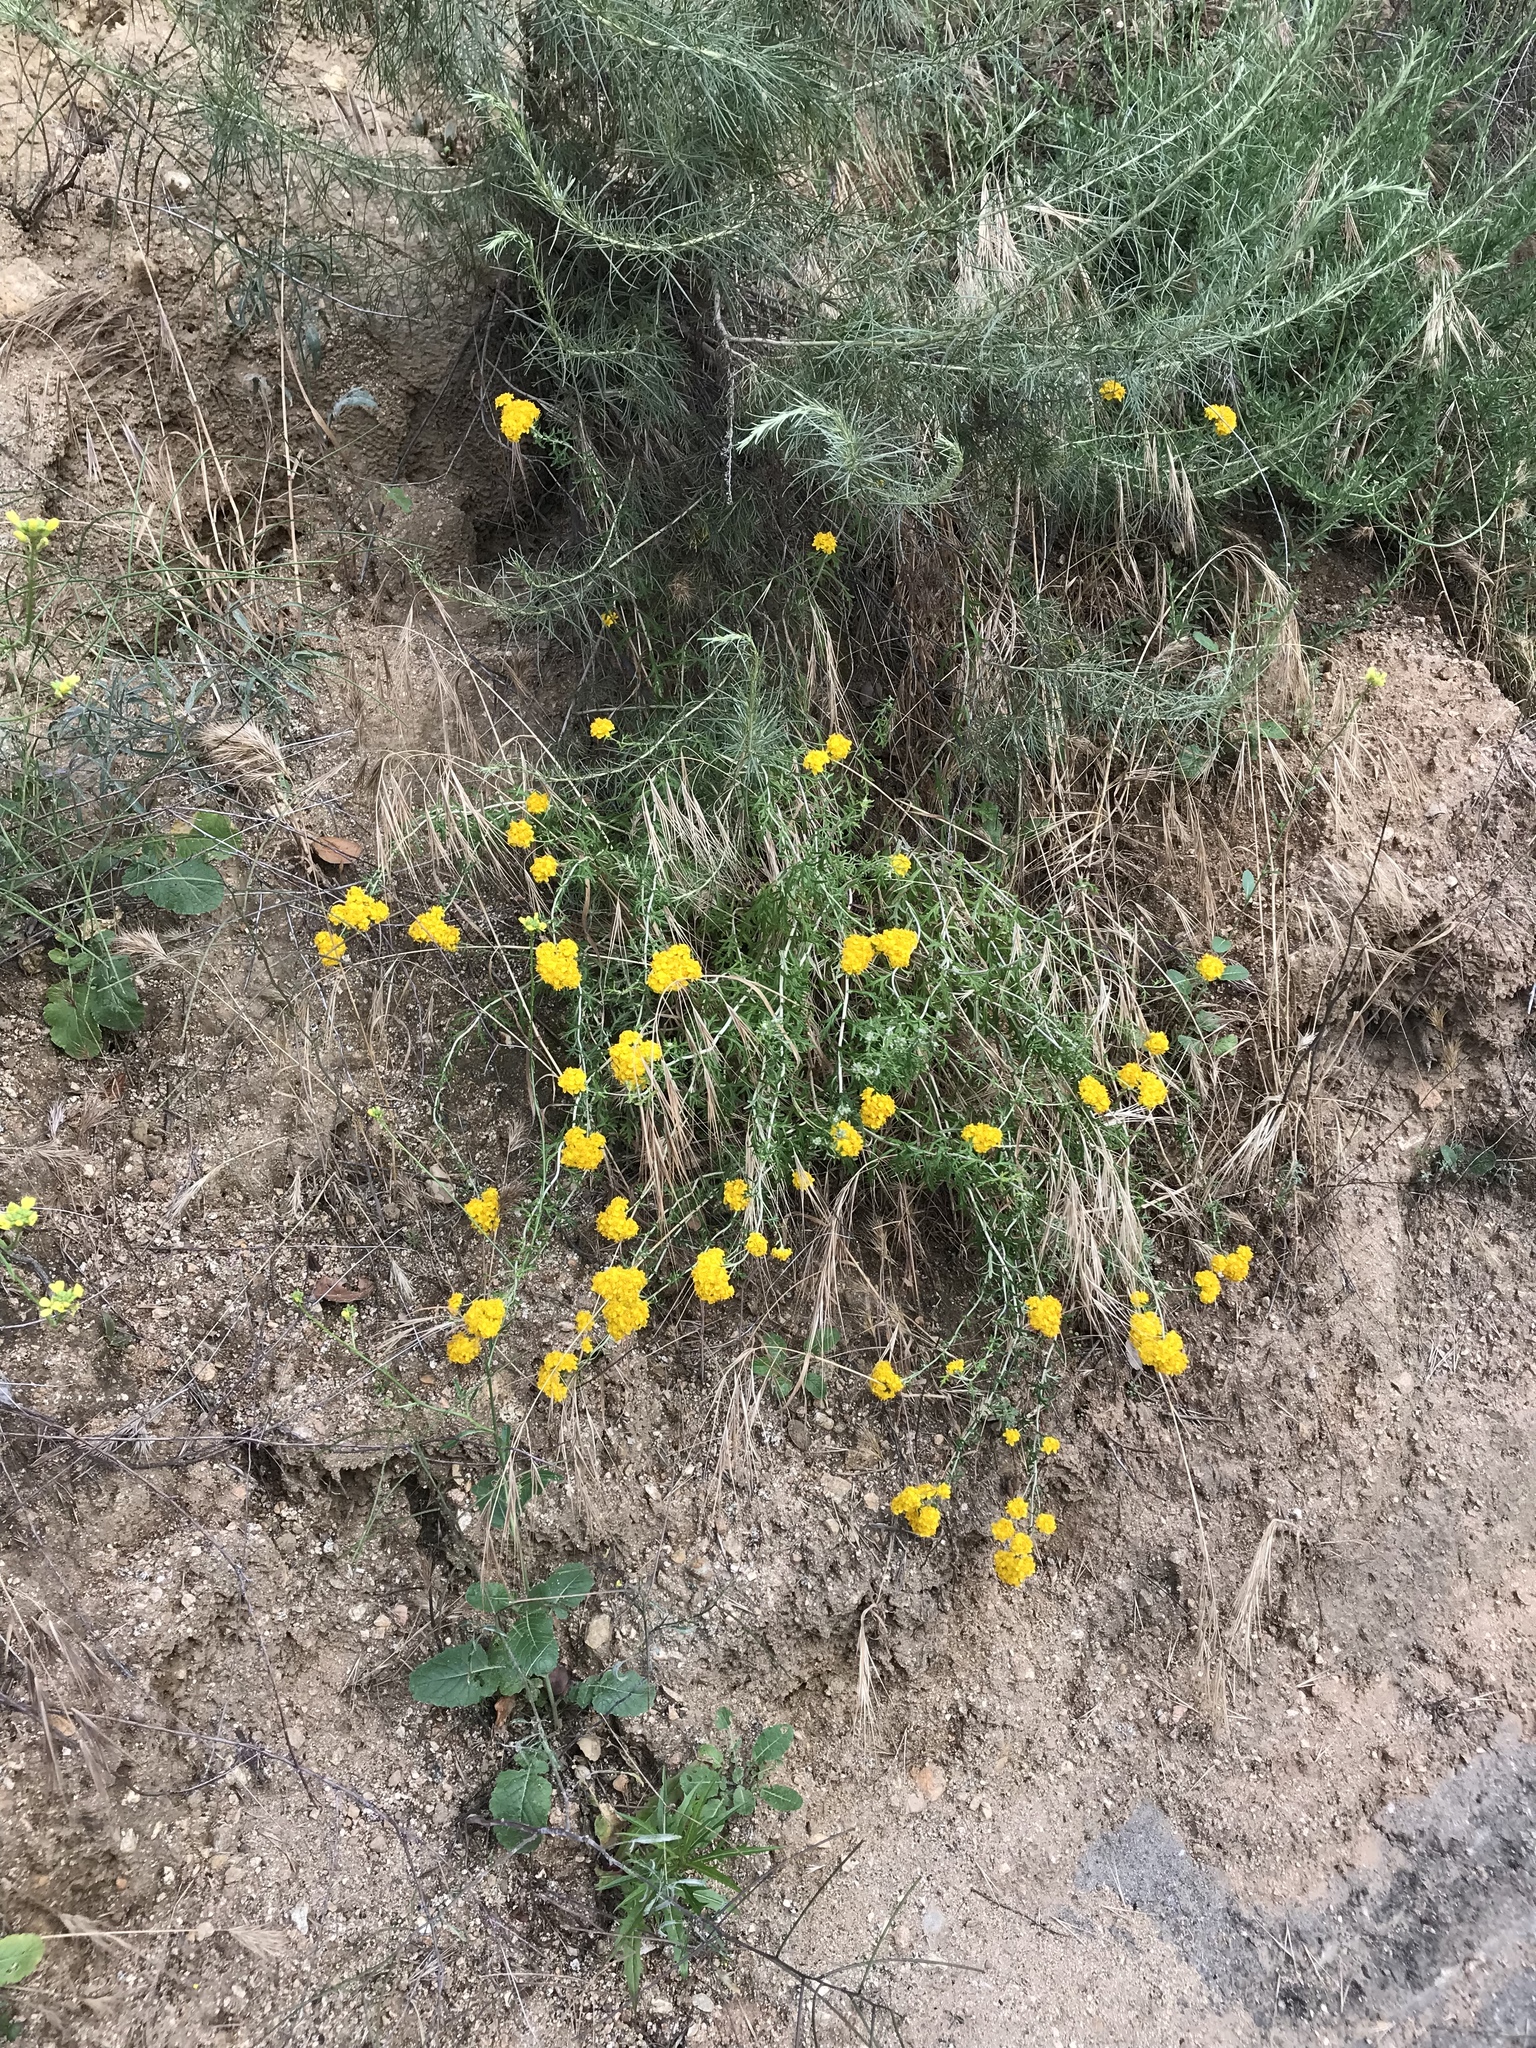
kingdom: Plantae
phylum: Tracheophyta
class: Magnoliopsida
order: Asterales
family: Asteraceae
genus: Eriophyllum
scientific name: Eriophyllum confertiflorum
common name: Golden-yarrow
